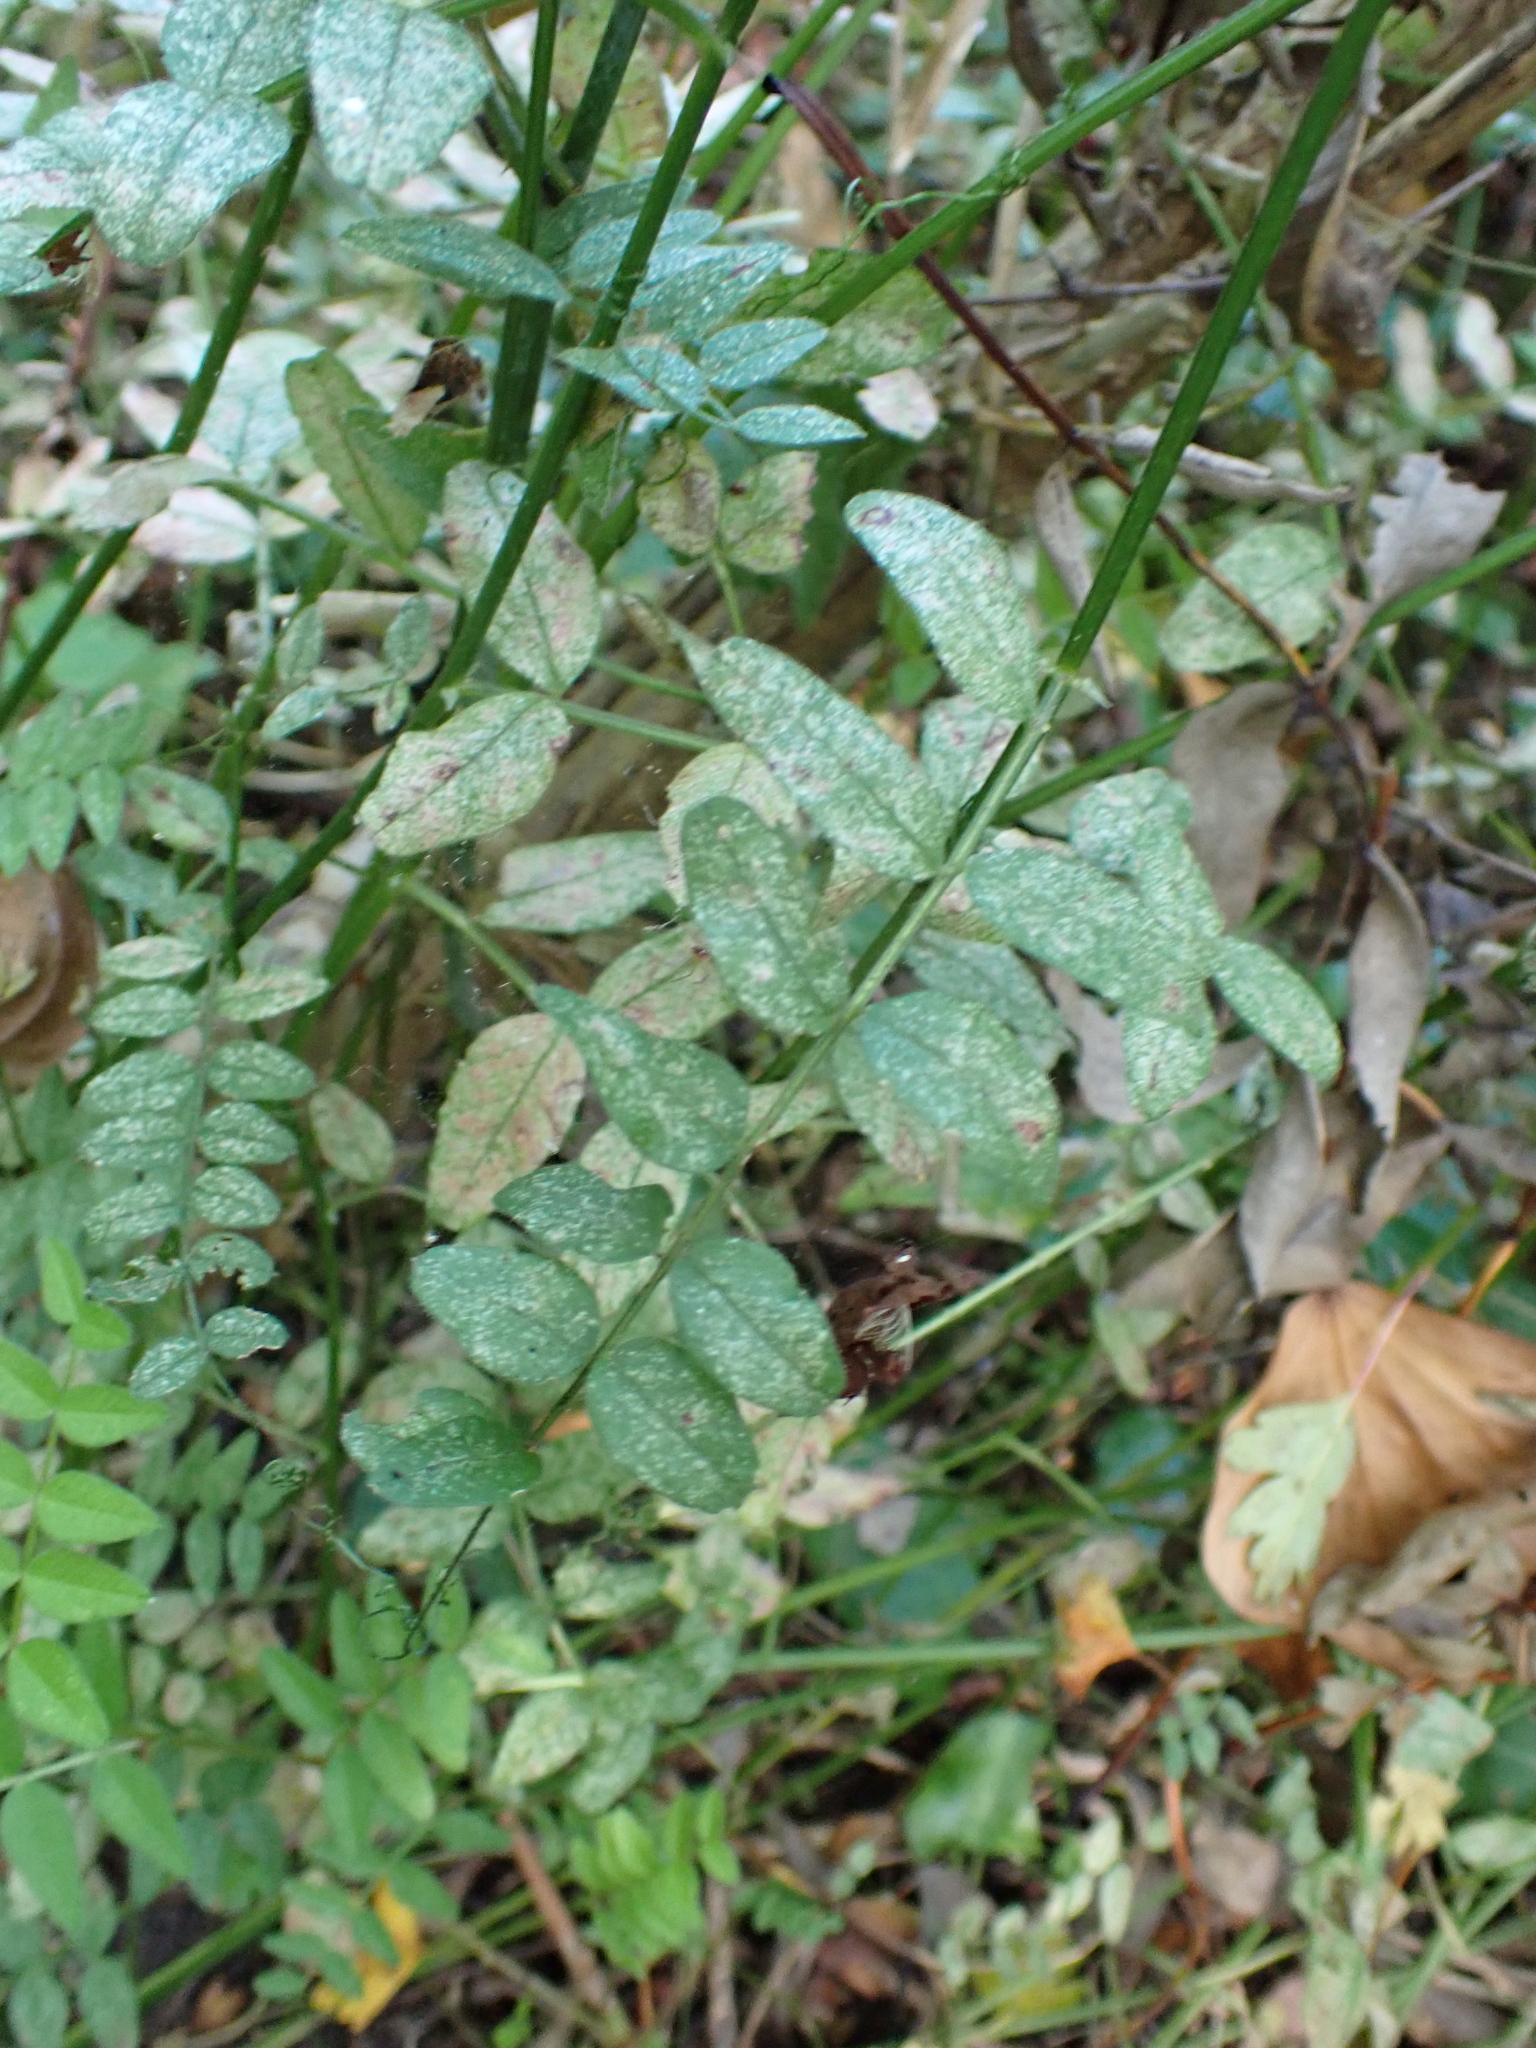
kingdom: Plantae
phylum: Tracheophyta
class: Magnoliopsida
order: Fabales
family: Fabaceae
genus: Vicia
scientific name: Vicia sepium
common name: Bush vetch
